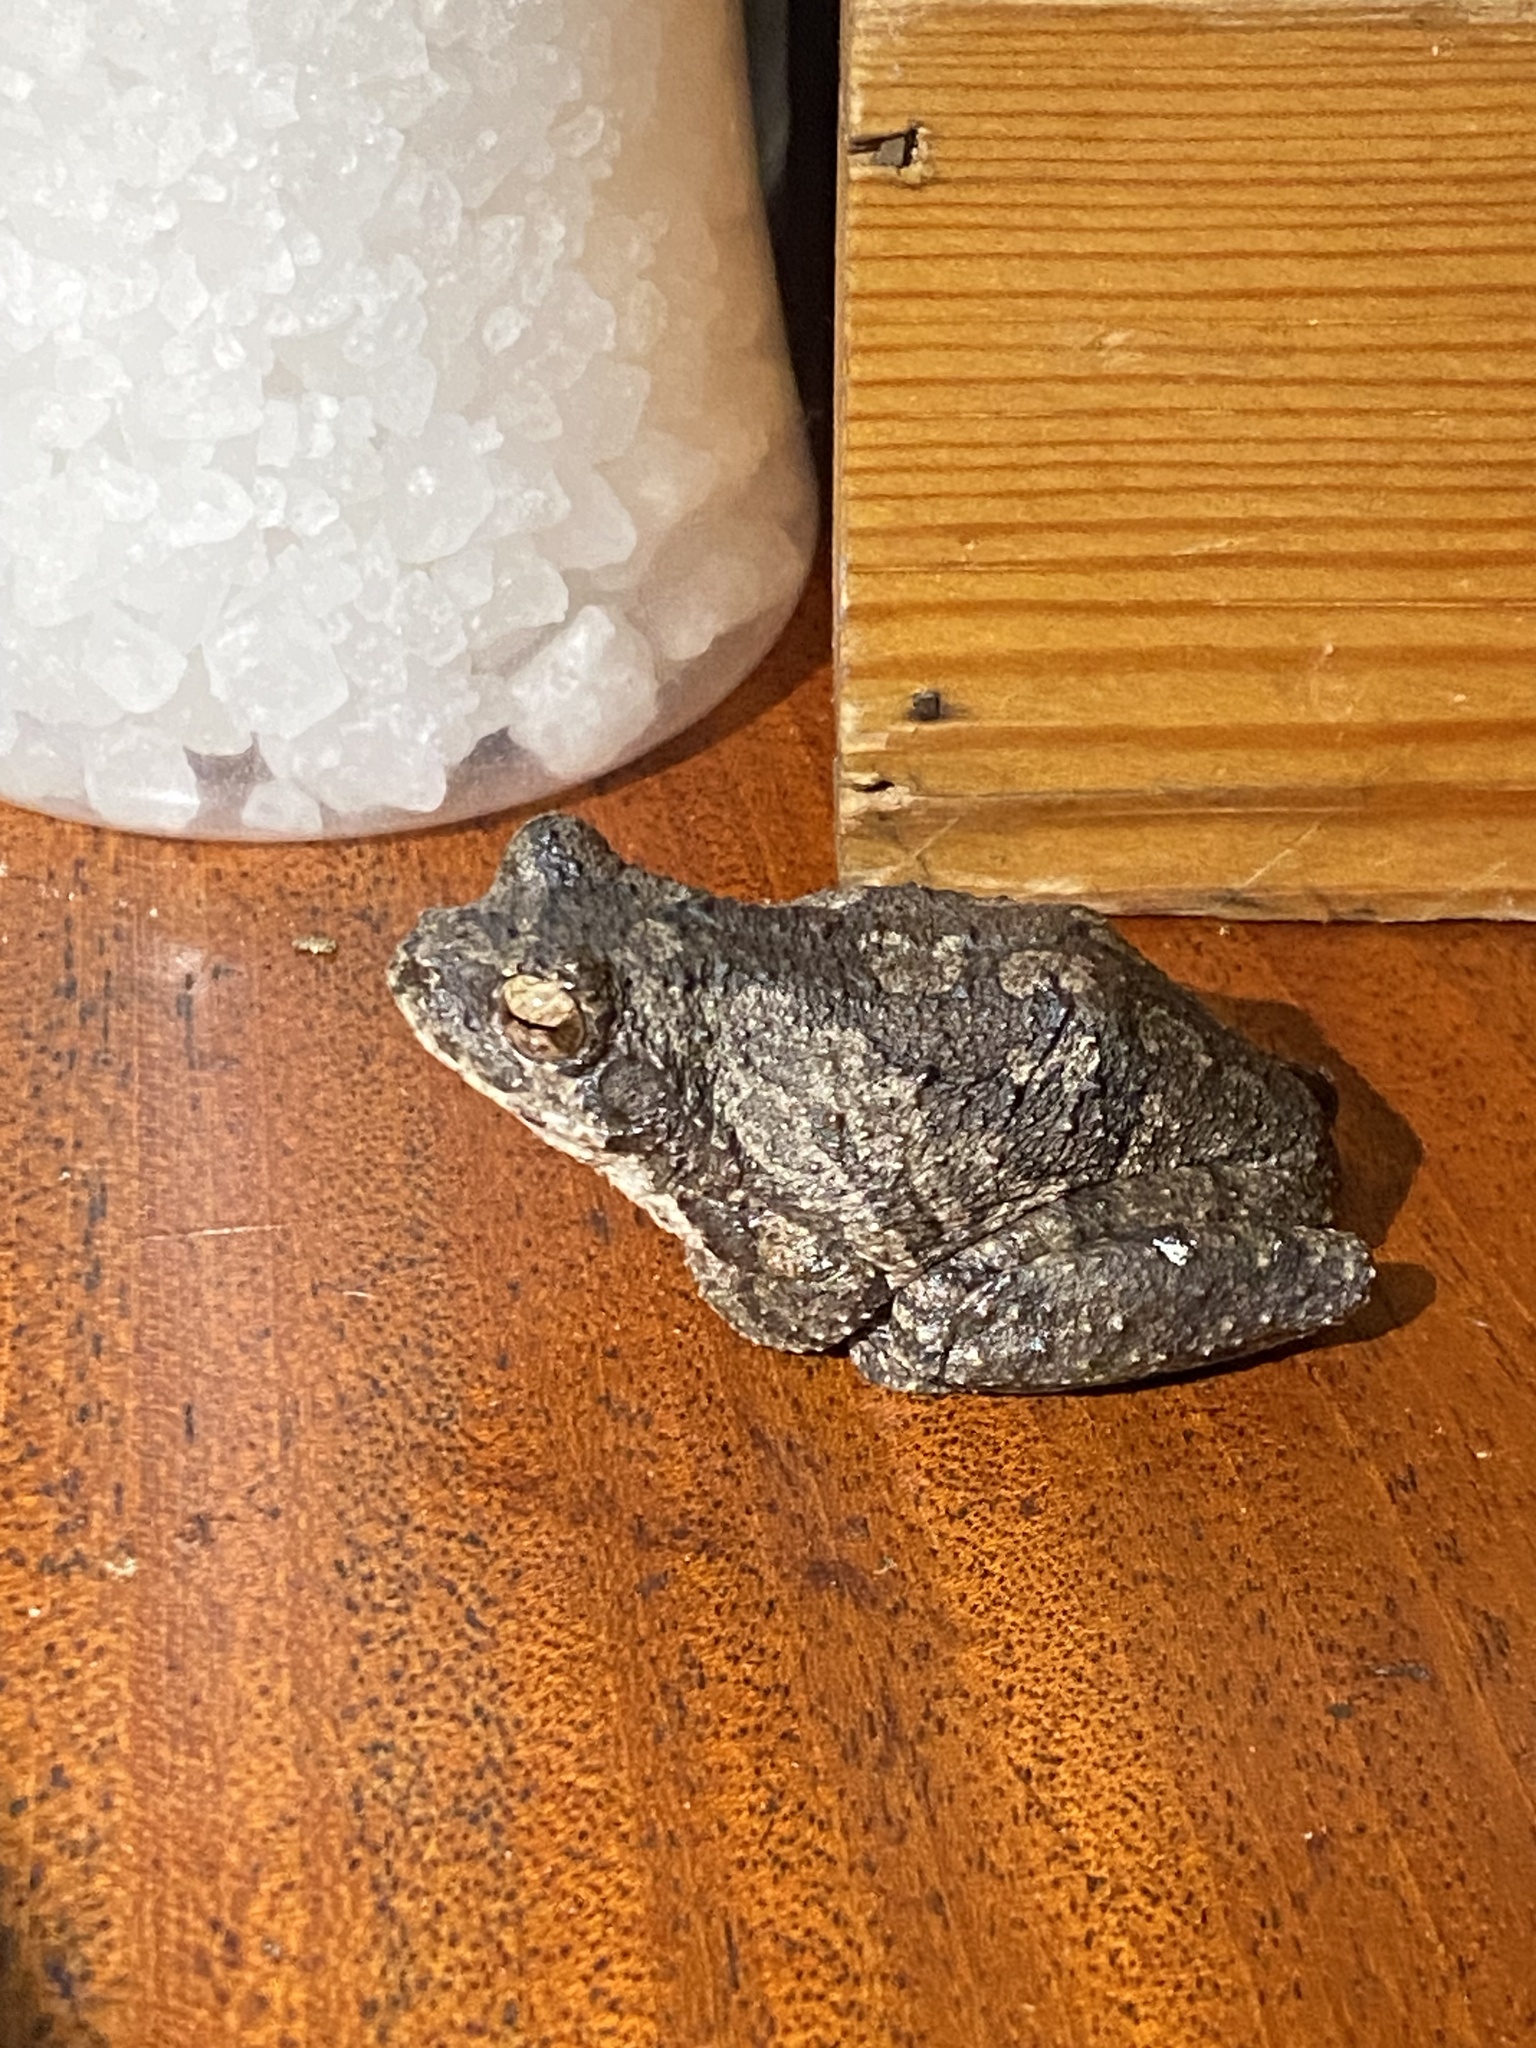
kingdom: Animalia
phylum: Chordata
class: Amphibia
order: Anura
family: Rhacophoridae
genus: Chiromantis
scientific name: Chiromantis xerampelina
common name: African gray treefrog
